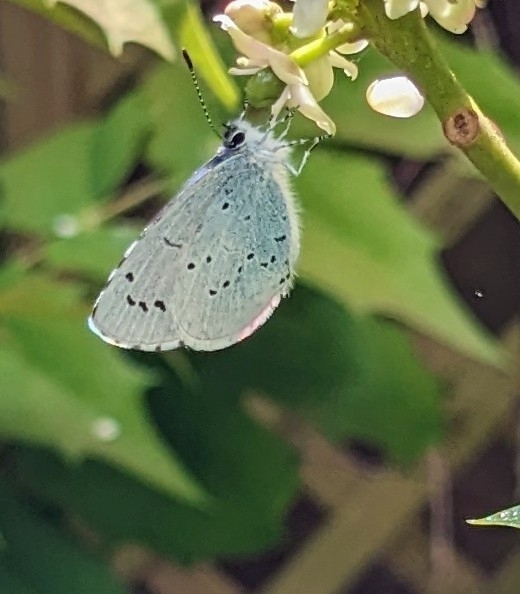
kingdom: Animalia
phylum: Arthropoda
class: Insecta
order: Lepidoptera
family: Lycaenidae
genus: Celastrina
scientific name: Celastrina argiolus
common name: Holly blue
